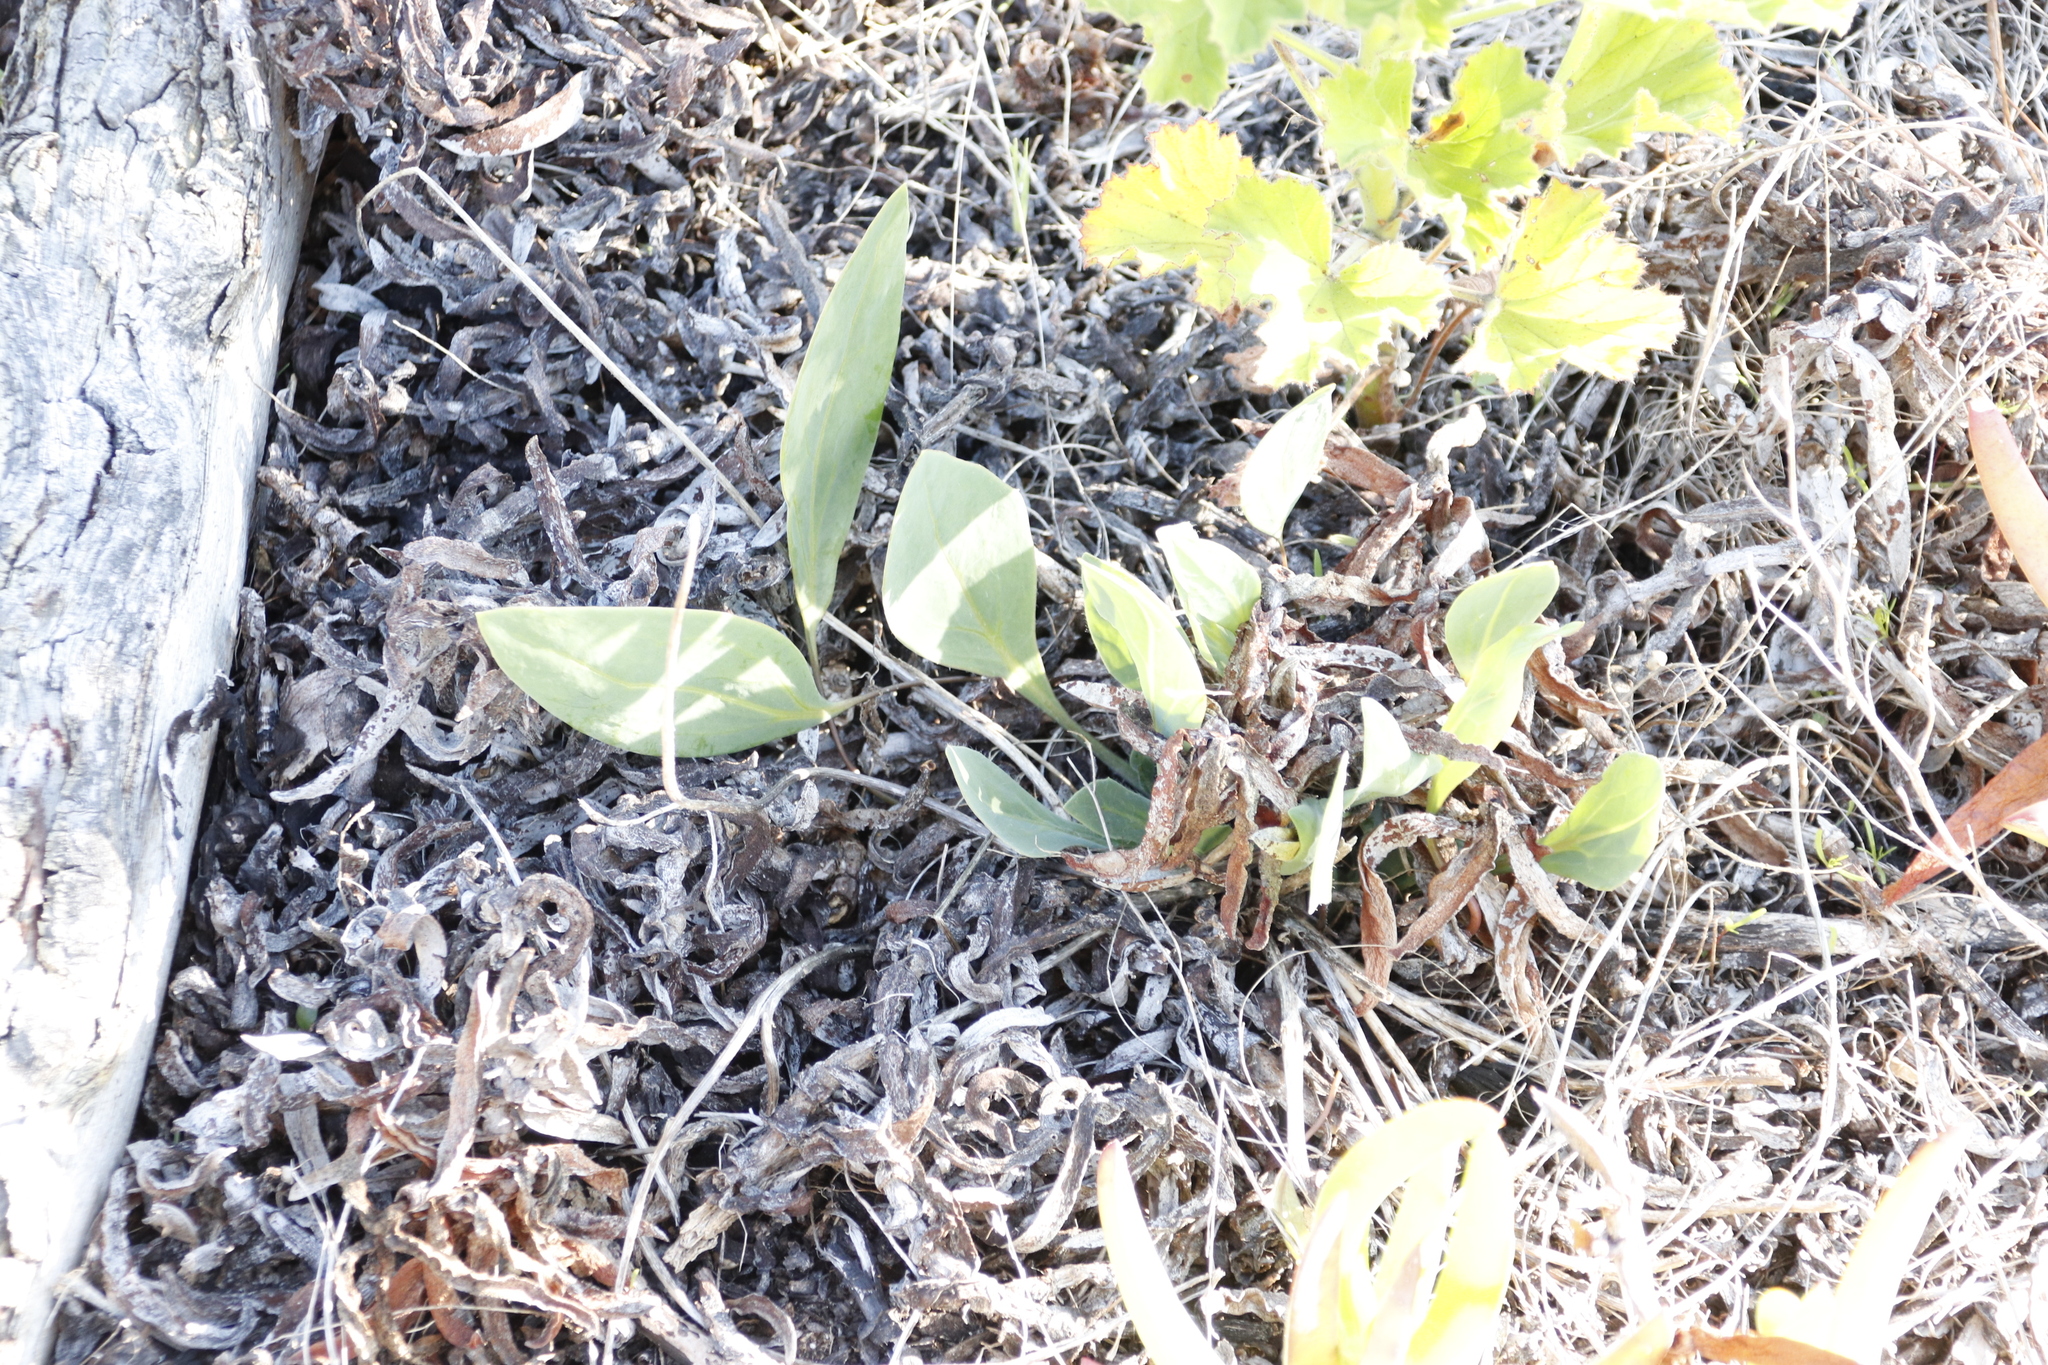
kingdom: Plantae
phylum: Tracheophyta
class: Magnoliopsida
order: Asterales
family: Asteraceae
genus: Othonna
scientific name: Othonna bulbosa
